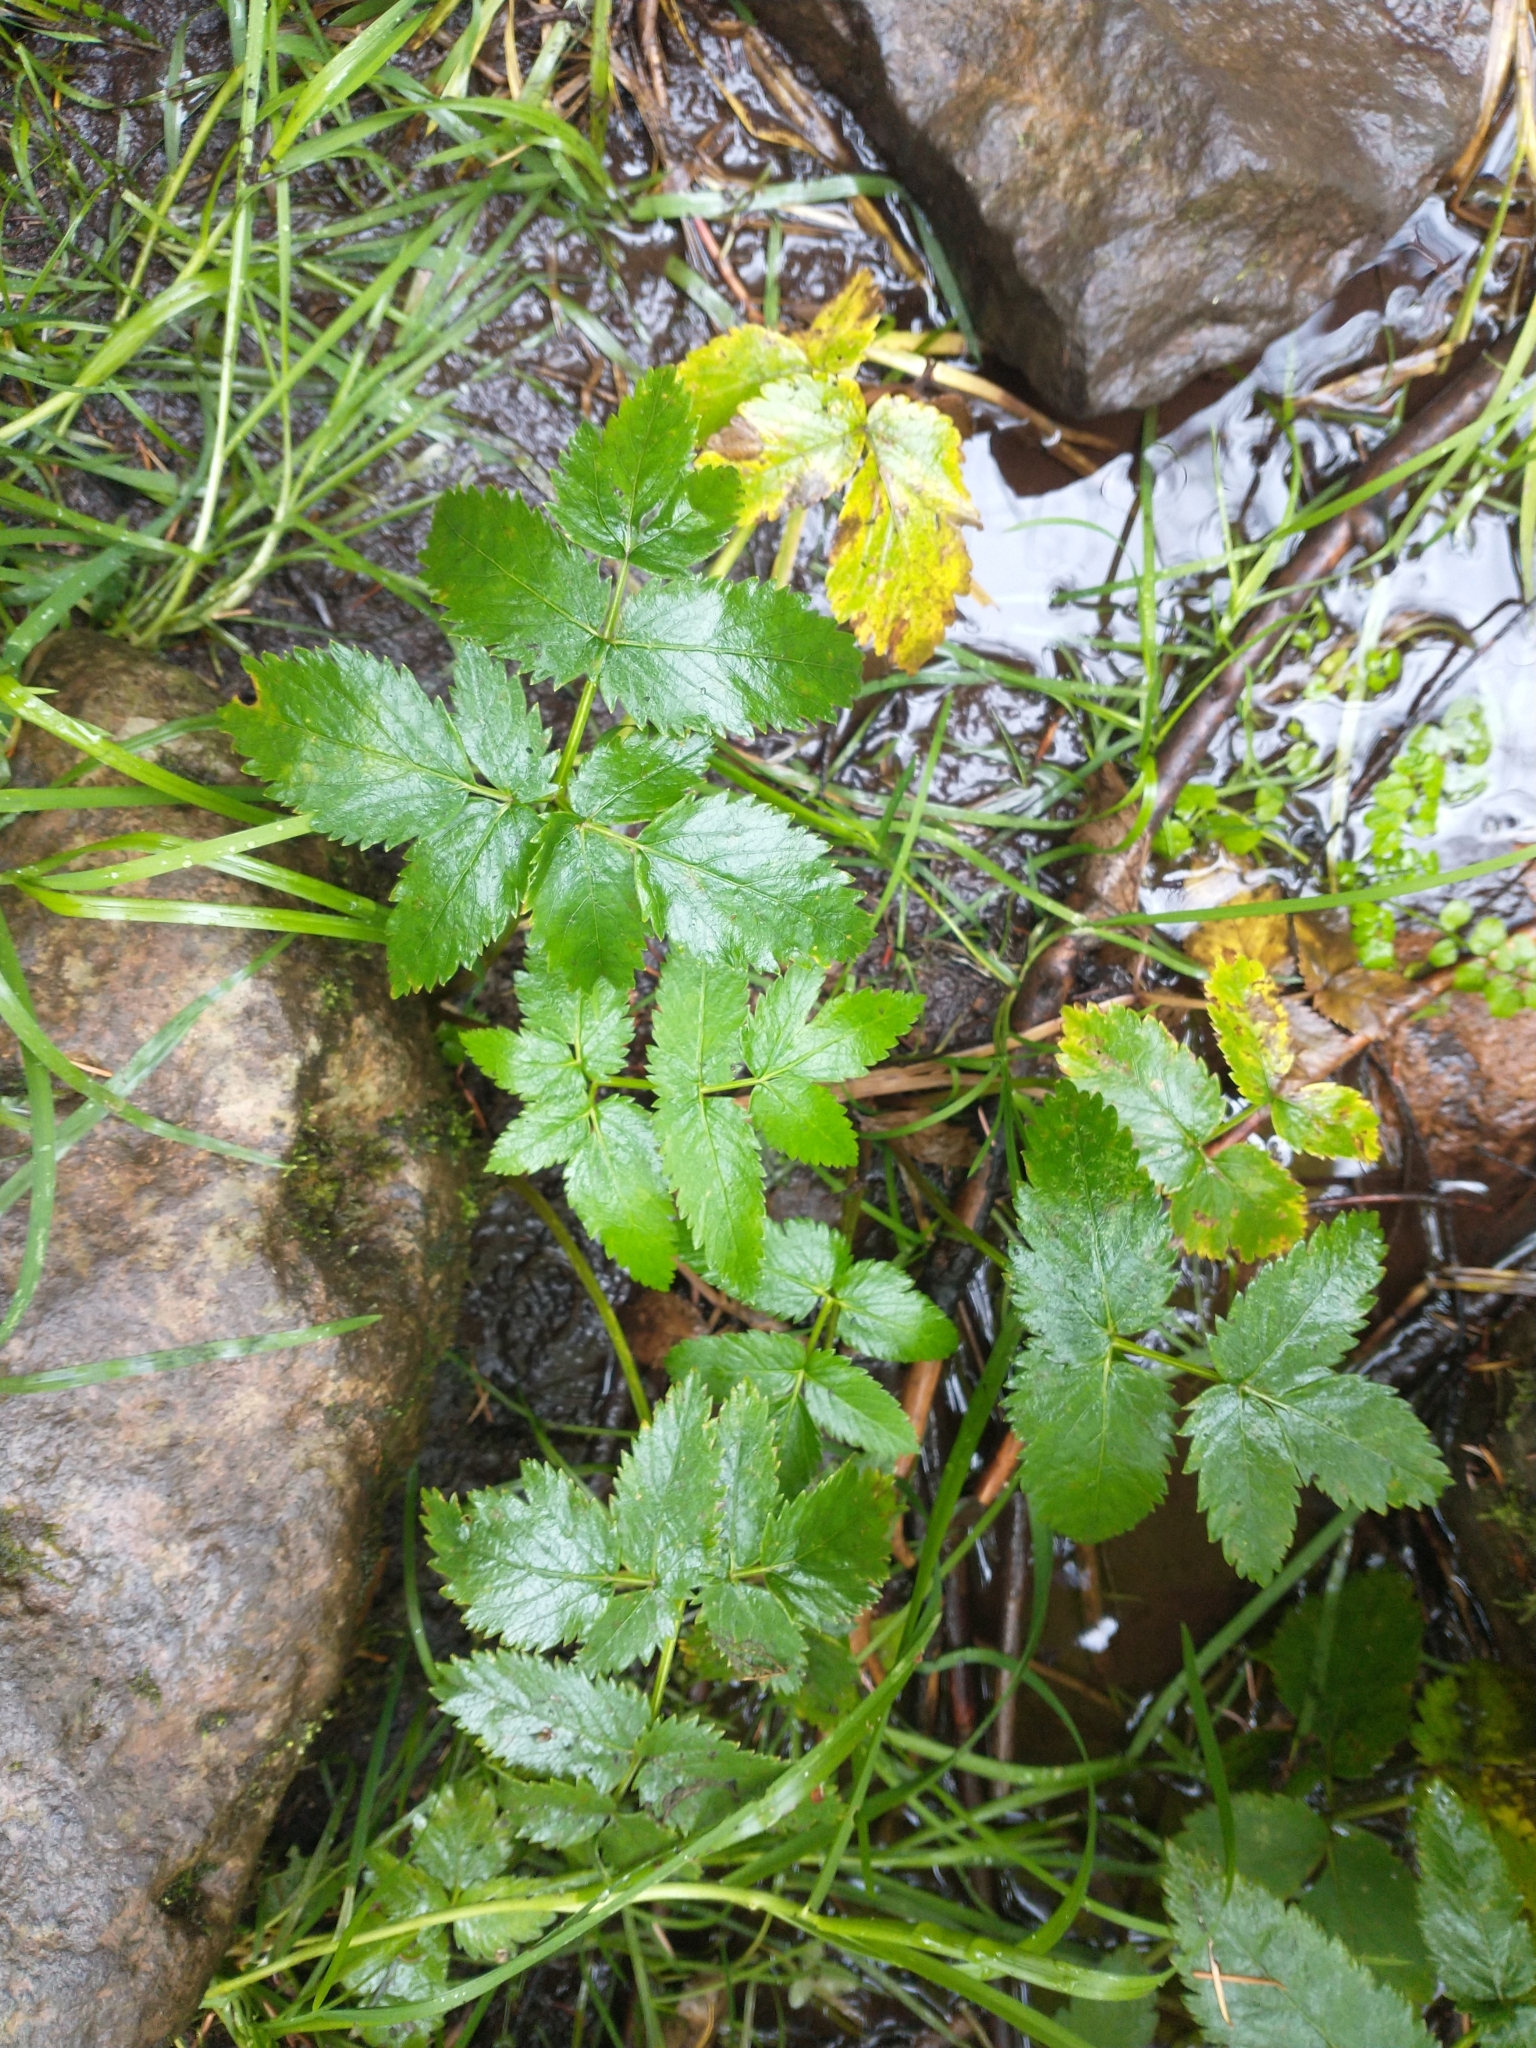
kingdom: Plantae
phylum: Tracheophyta
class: Magnoliopsida
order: Apiales
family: Apiaceae
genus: Oenanthe
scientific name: Oenanthe sarmentosa
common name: American water-parsley
